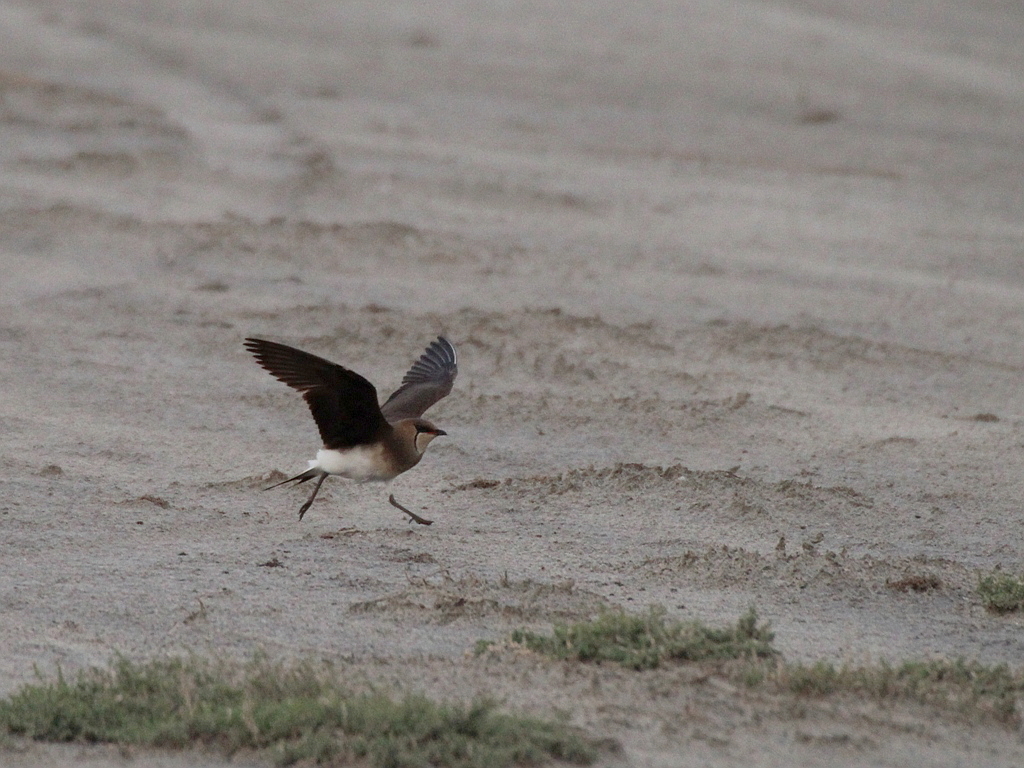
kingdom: Animalia
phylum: Chordata
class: Aves
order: Charadriiformes
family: Glareolidae
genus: Glareola
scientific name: Glareola nordmanni
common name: Black-winged pratincole
